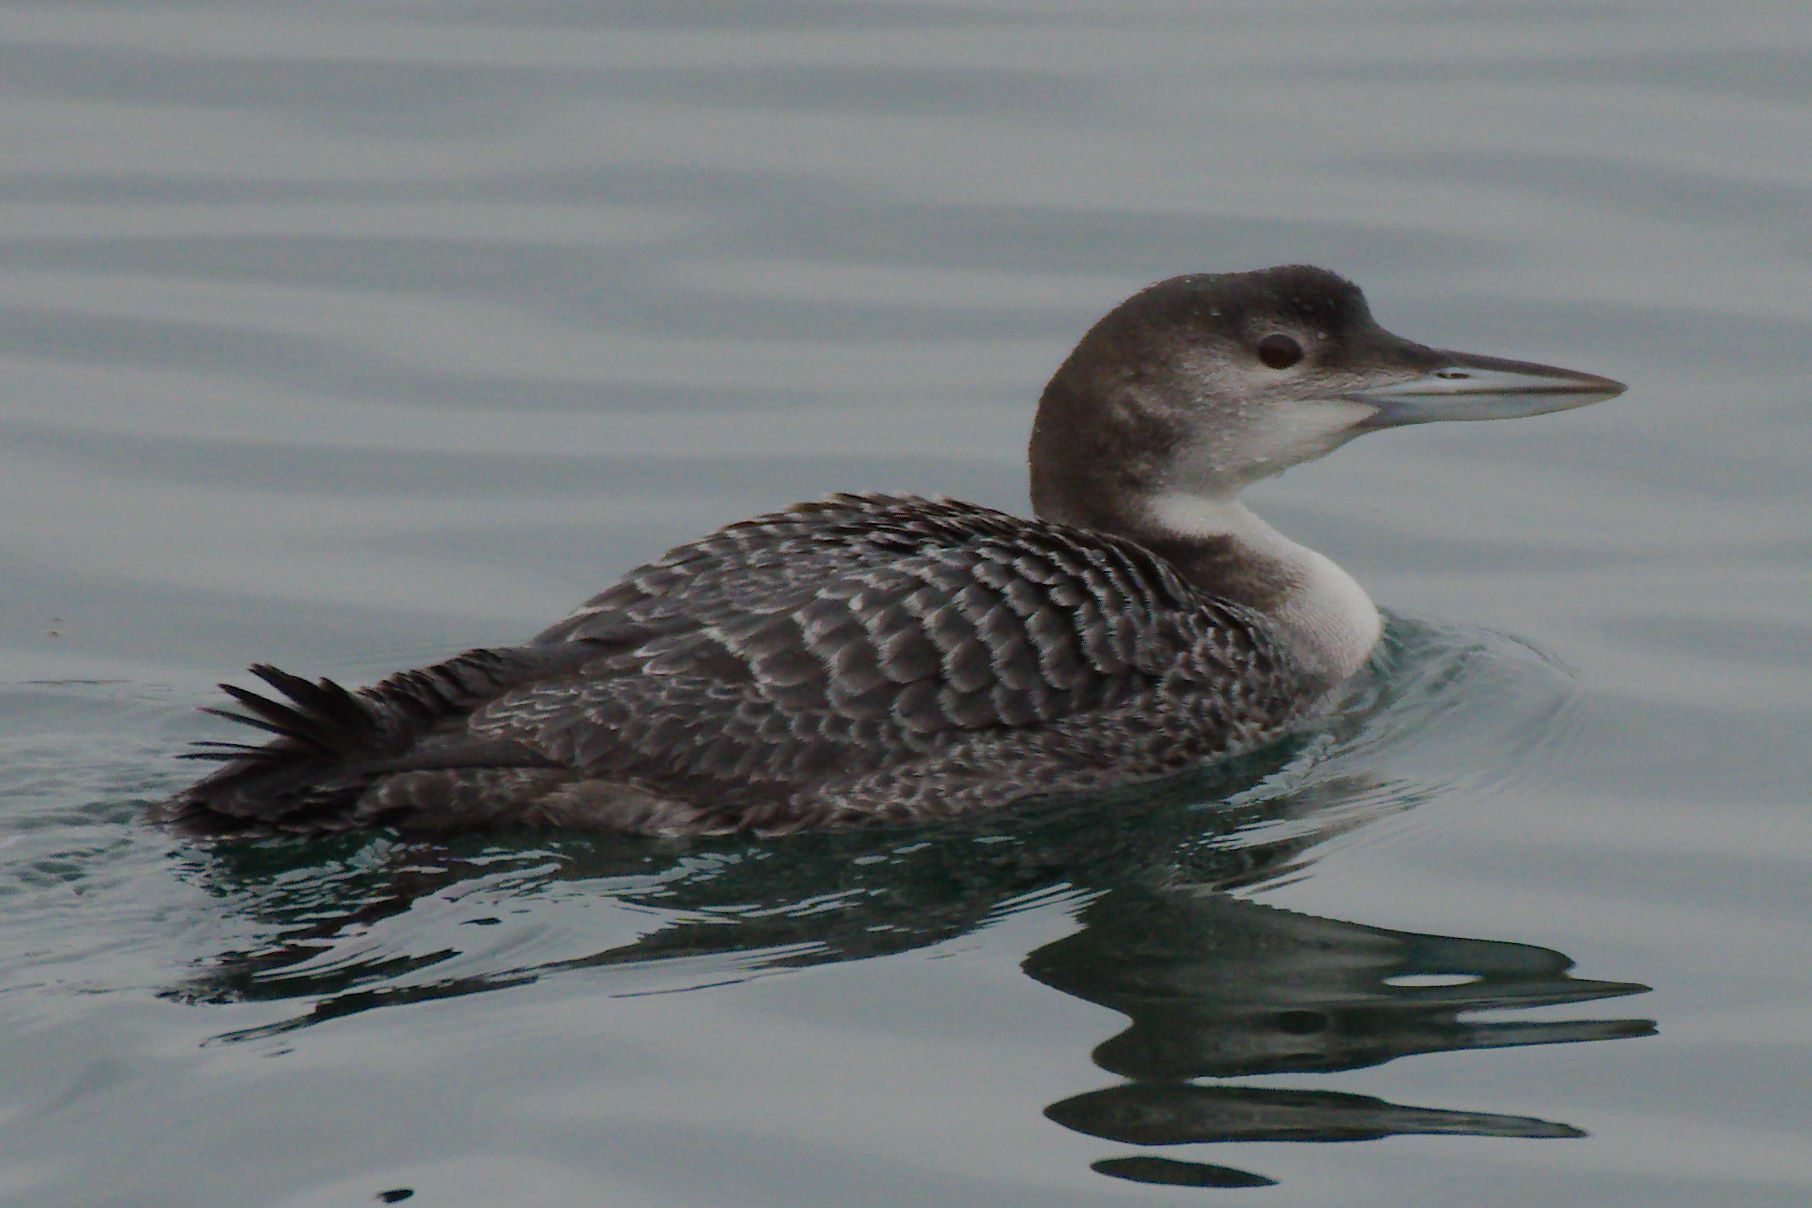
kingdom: Animalia
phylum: Chordata
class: Aves
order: Gaviiformes
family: Gaviidae
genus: Gavia
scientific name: Gavia immer
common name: Common loon
